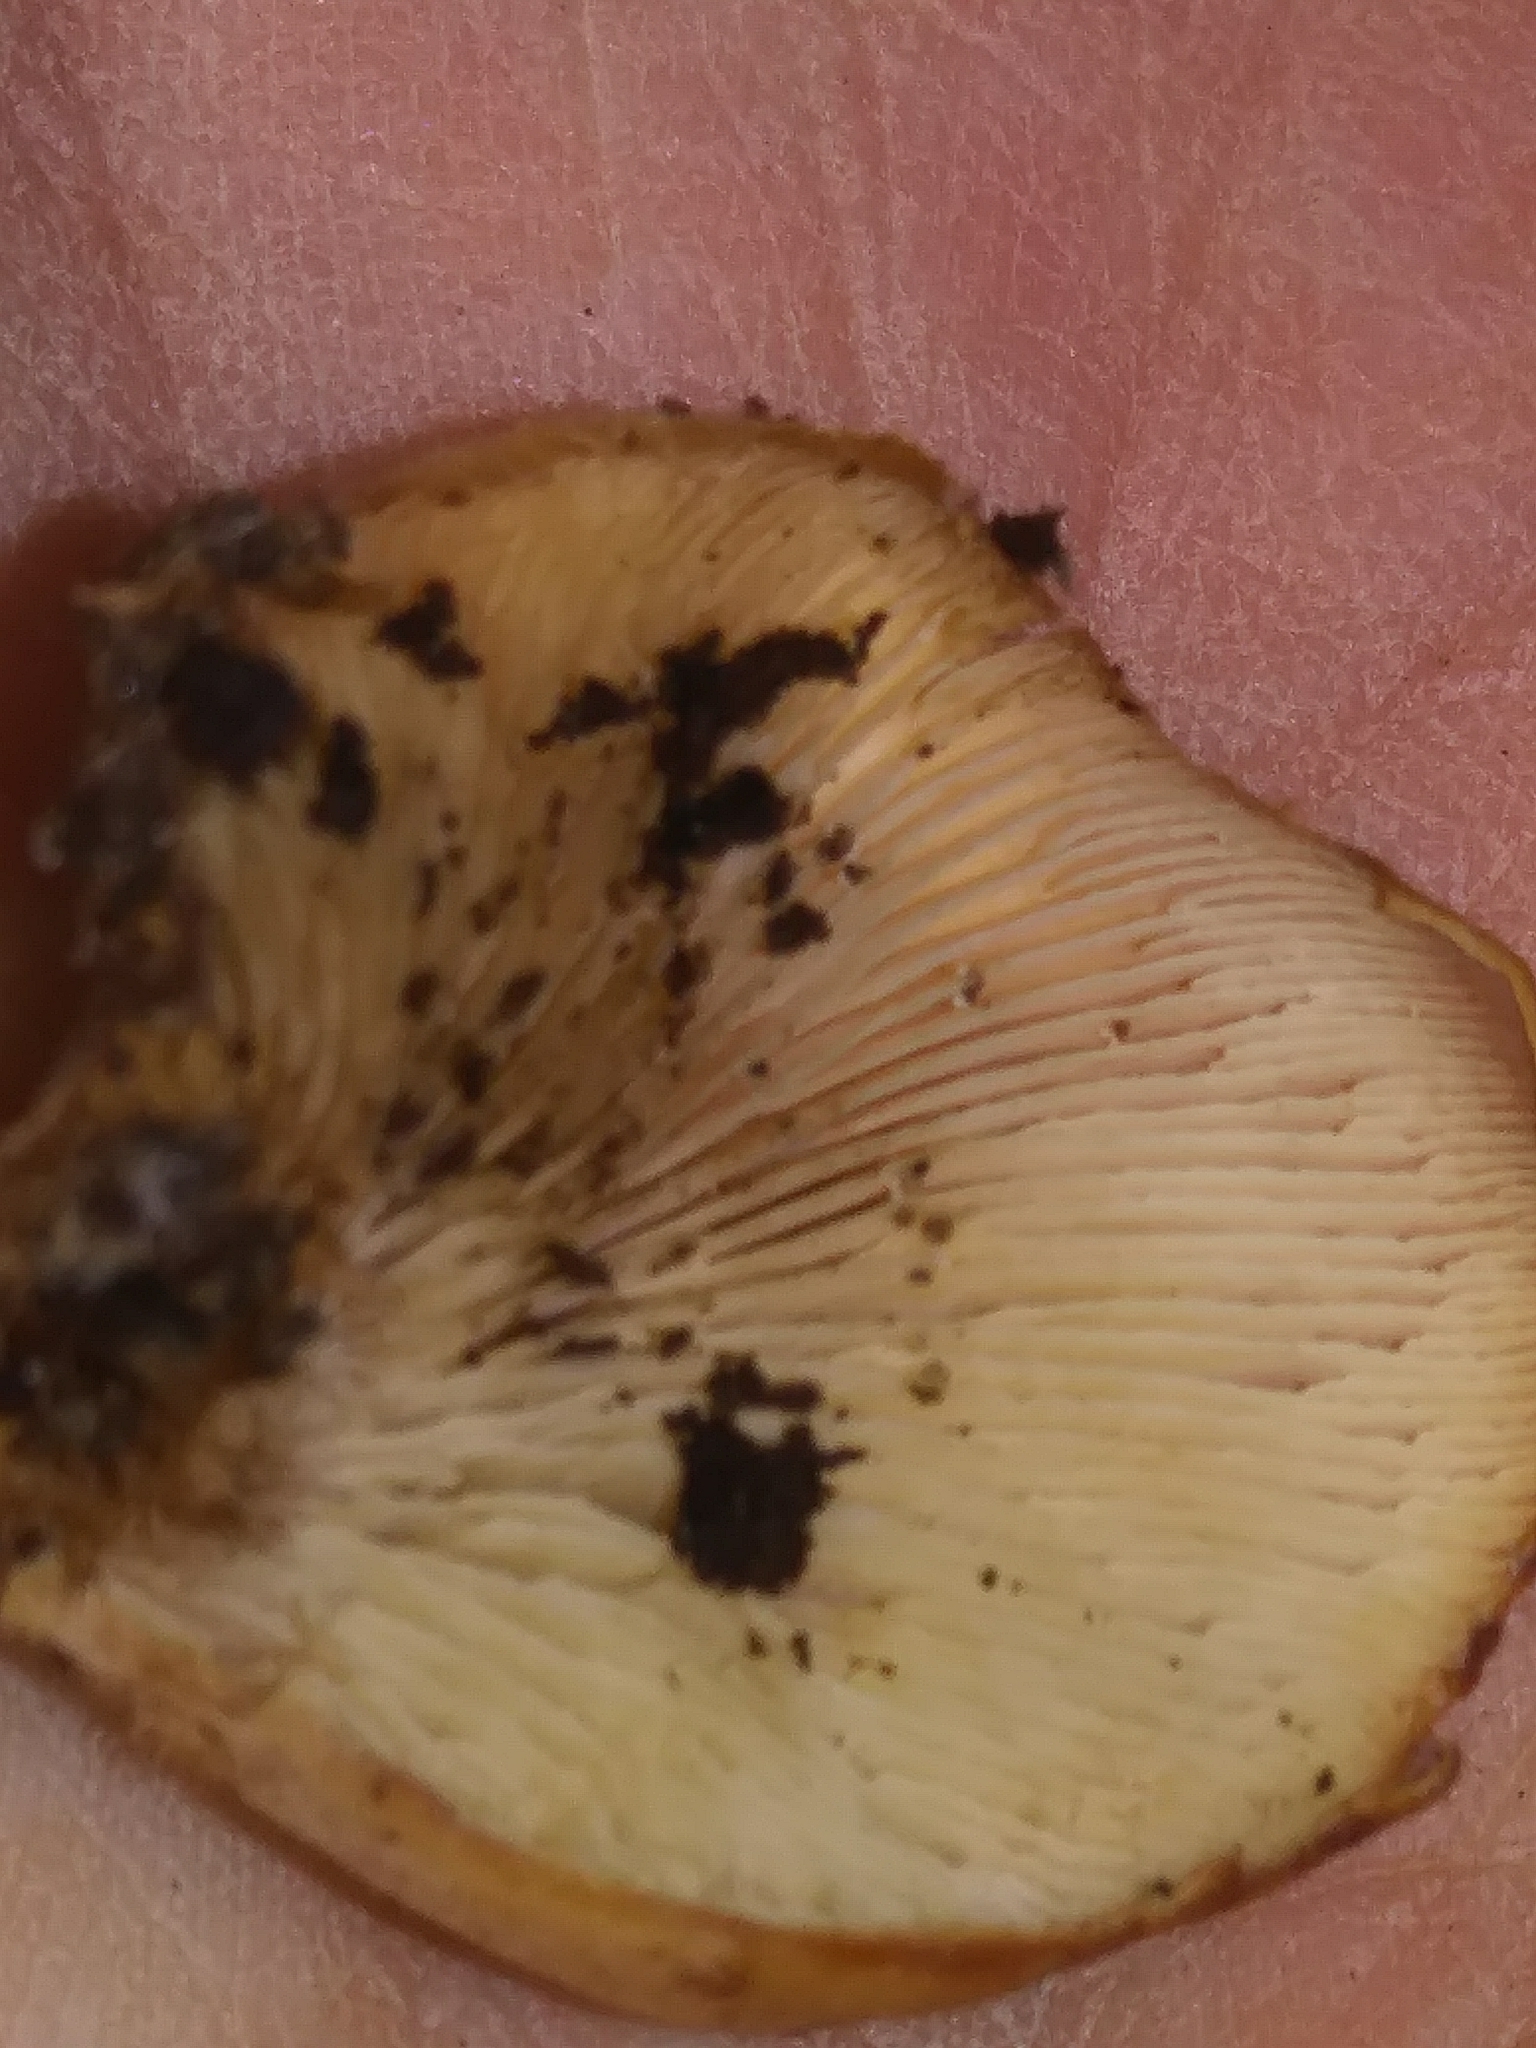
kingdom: Fungi
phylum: Basidiomycota
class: Agaricomycetes
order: Russulales
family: Auriscalpiaceae
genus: Lentinellus
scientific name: Lentinellus ursinus
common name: Bear lentinus
